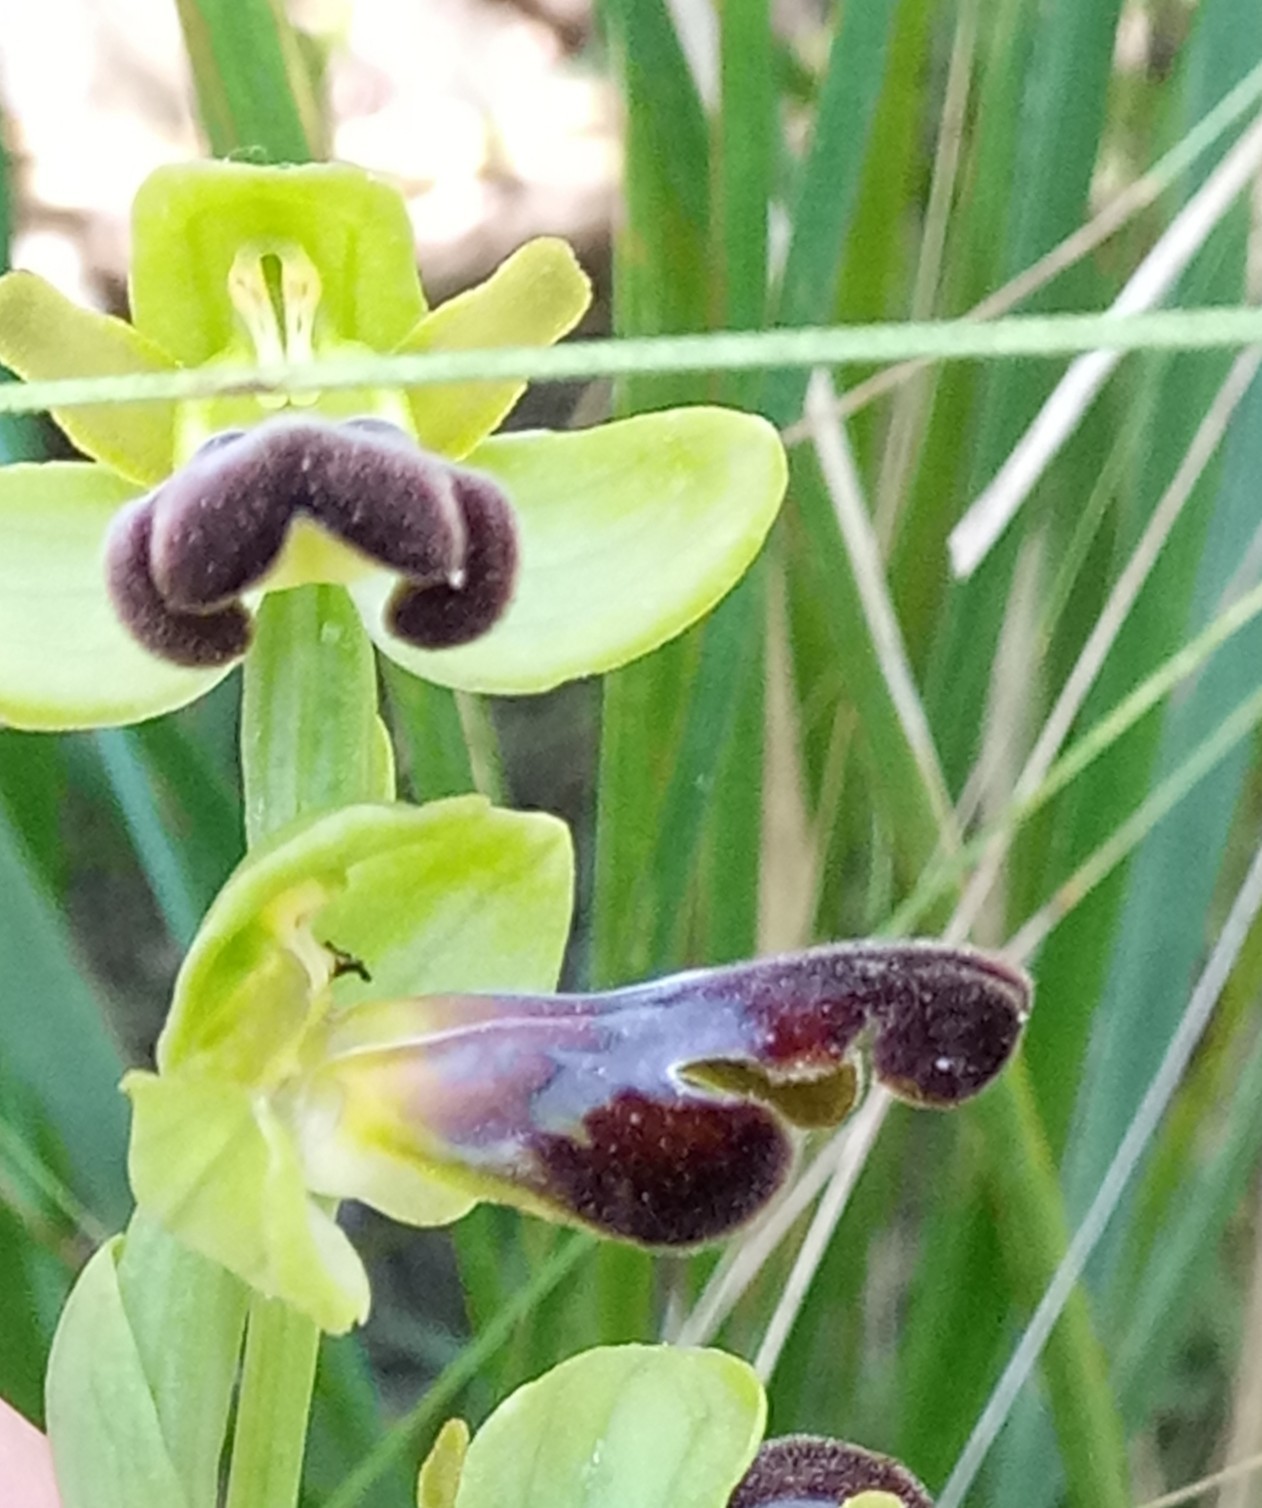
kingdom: Plantae
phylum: Tracheophyta
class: Liliopsida
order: Asparagales
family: Orchidaceae
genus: Ophrys
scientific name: Ophrys fusca
